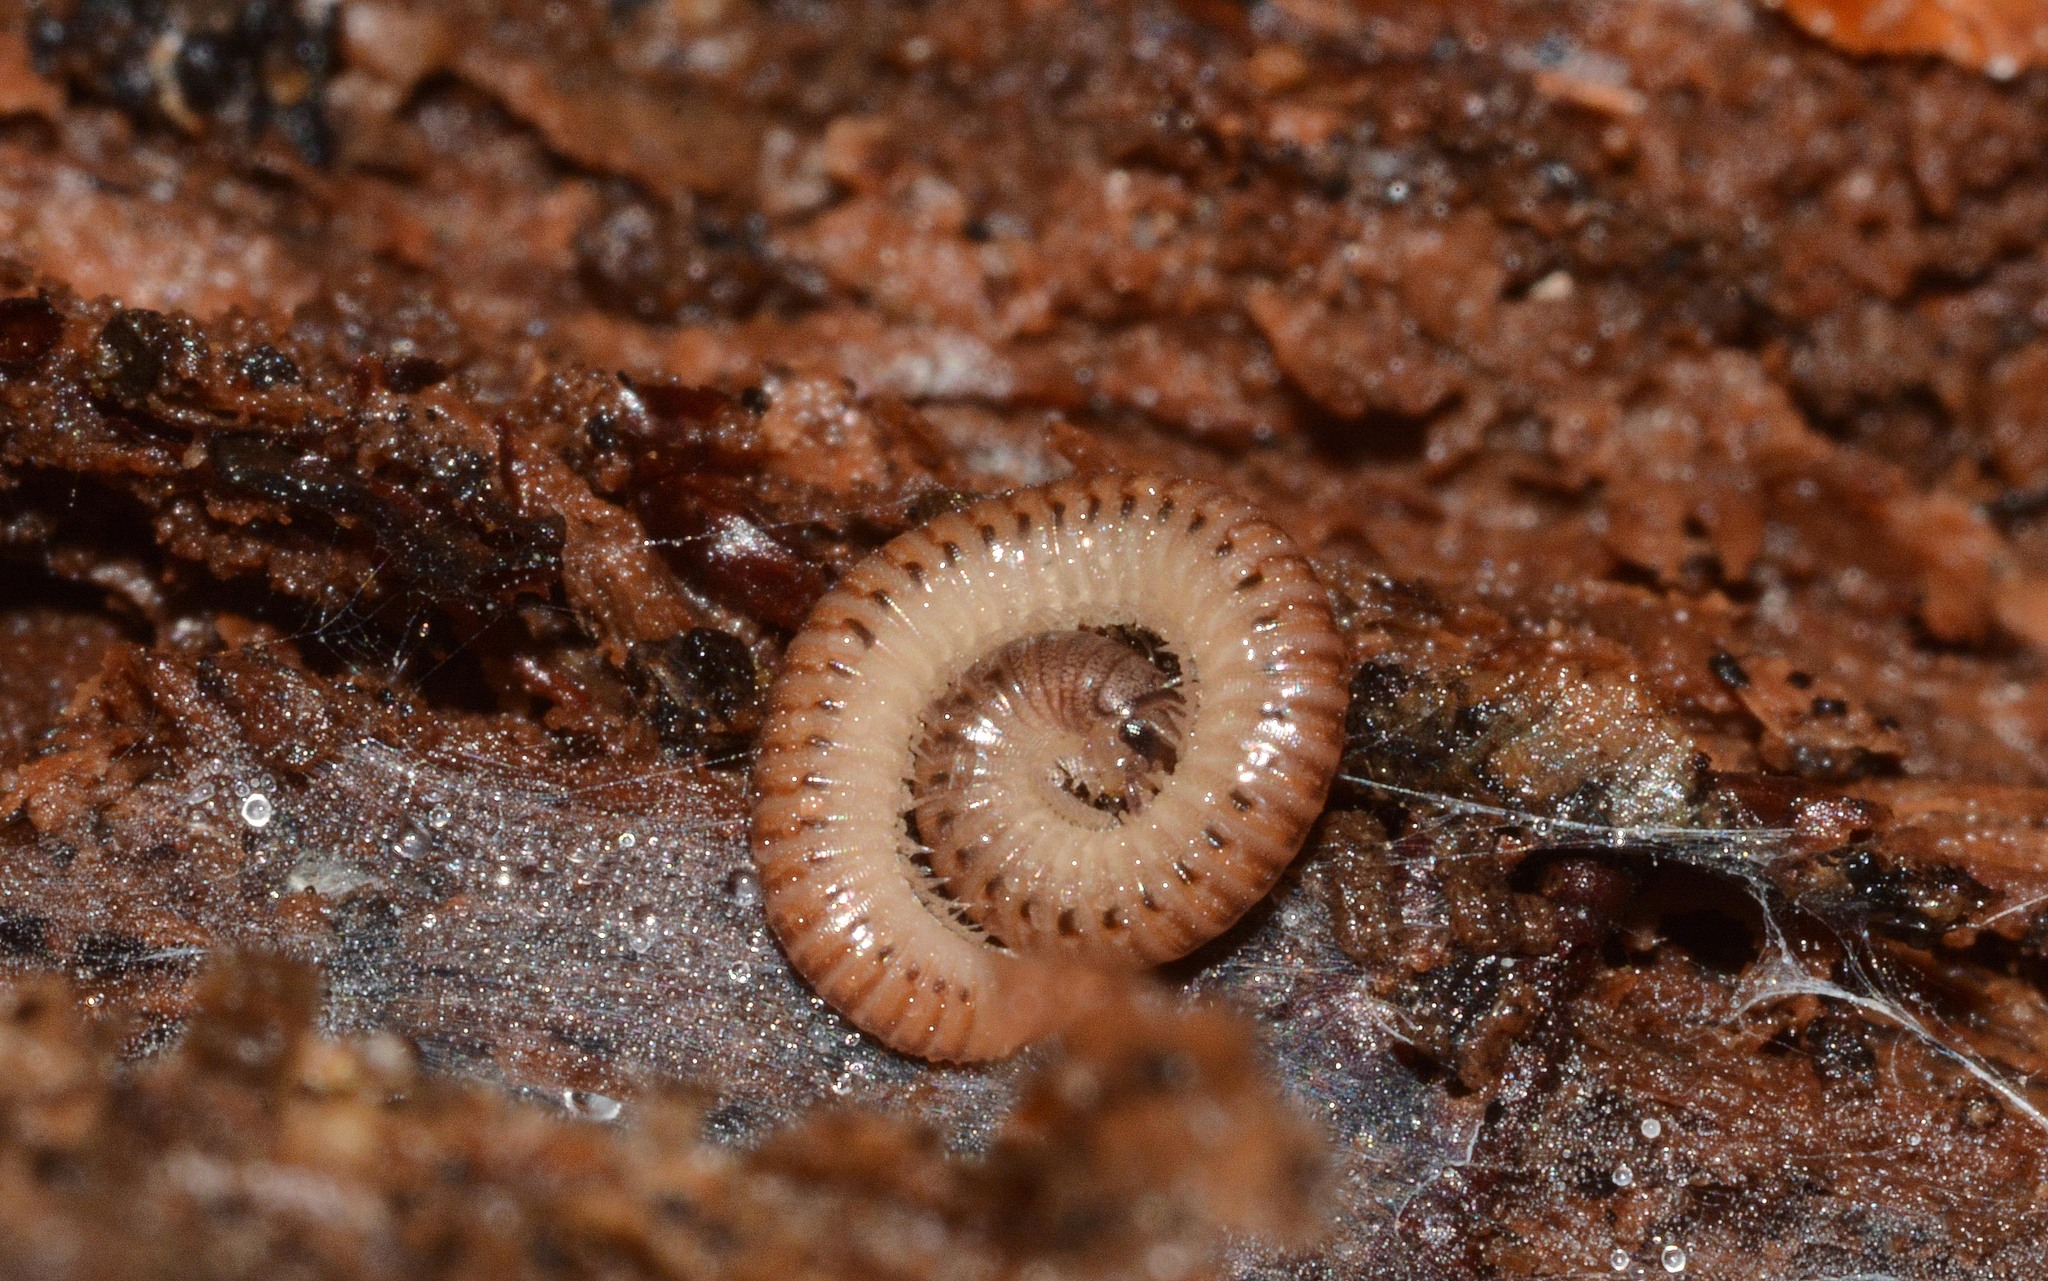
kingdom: Animalia
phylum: Arthropoda
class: Diplopoda
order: Julida
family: Julidae
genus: Cylindroiulus
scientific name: Cylindroiulus punctatus
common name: Blunt-tailed millipede
